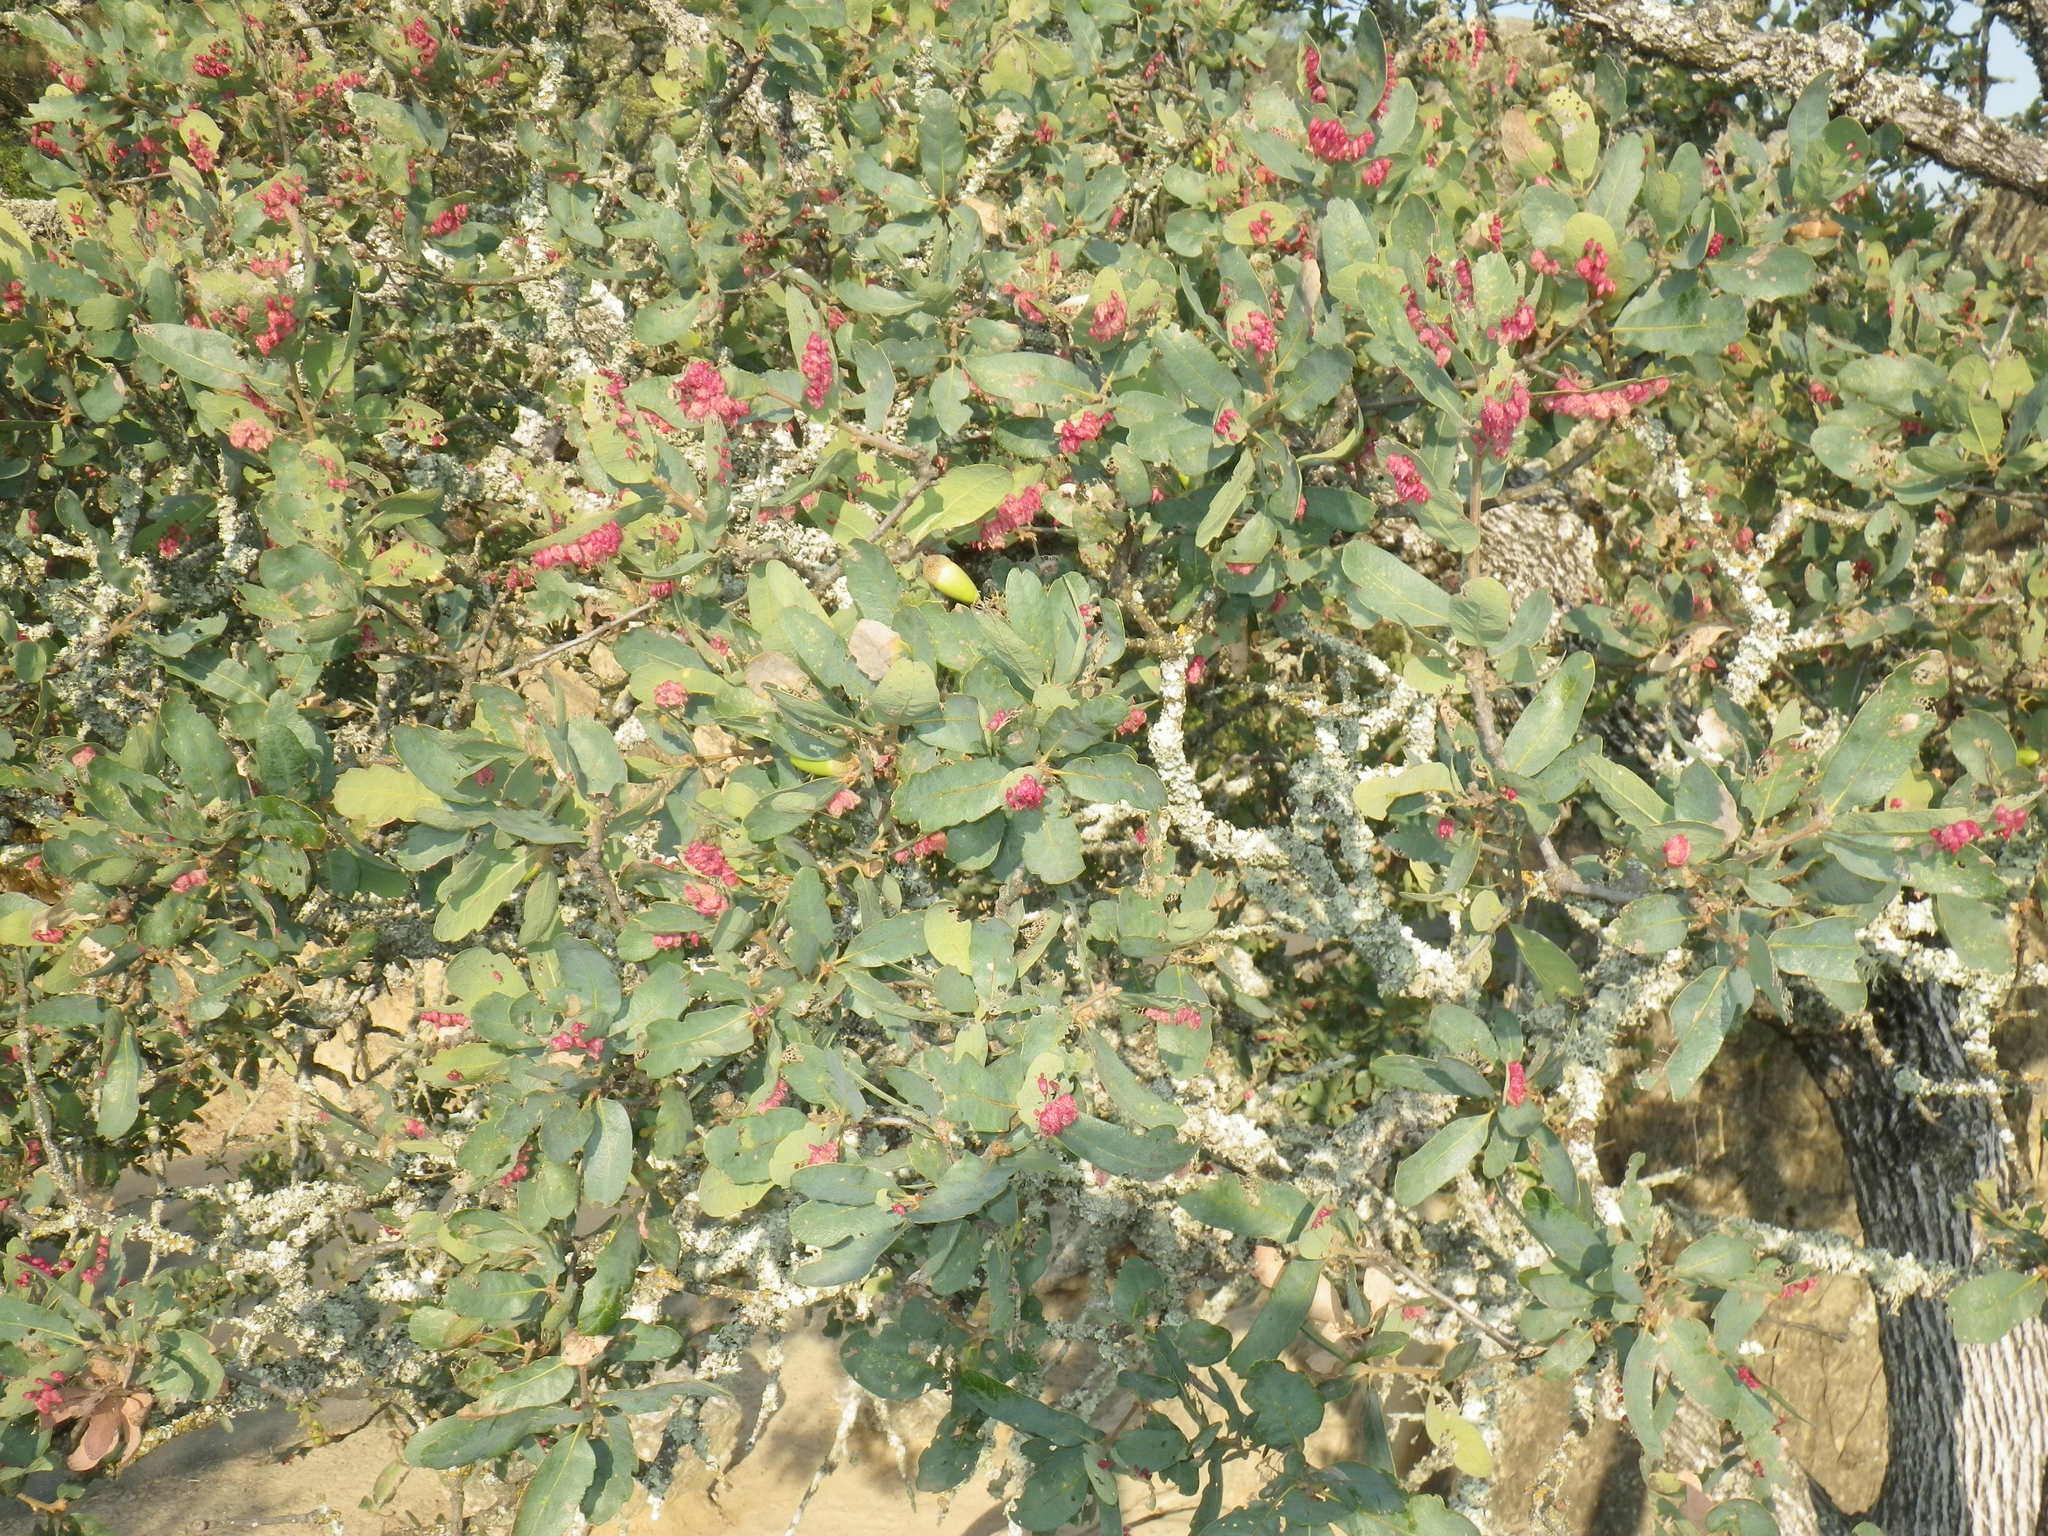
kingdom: Animalia
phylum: Arthropoda
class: Insecta
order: Hymenoptera
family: Cynipidae
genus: Andricus
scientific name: Andricus
